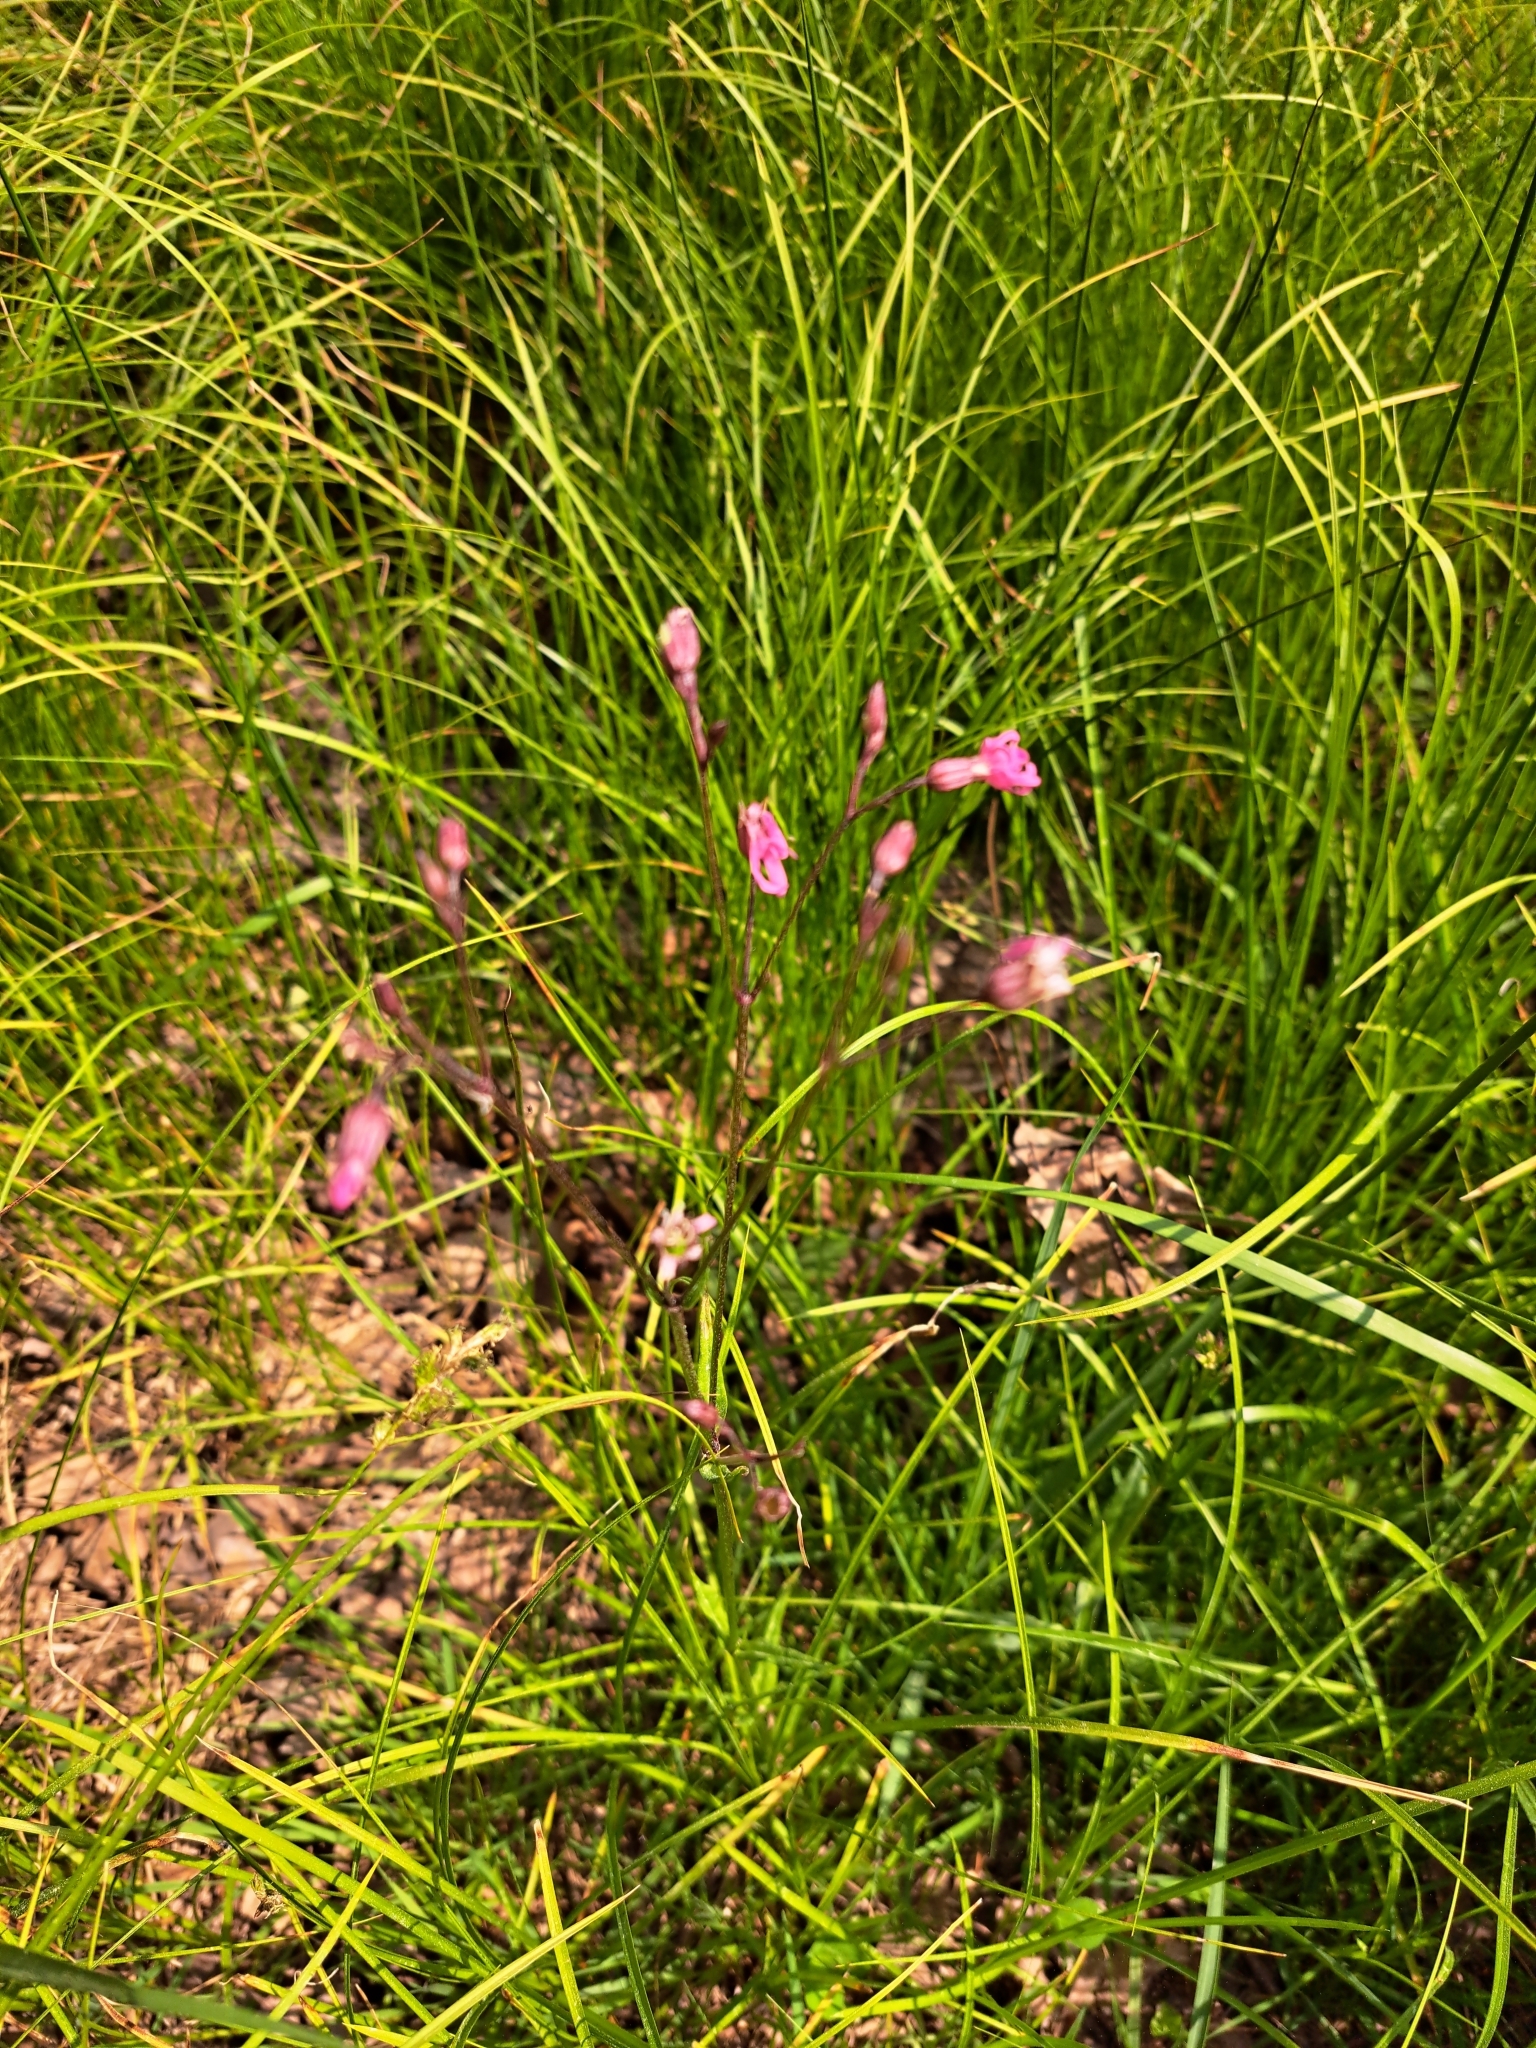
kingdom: Plantae
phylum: Tracheophyta
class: Magnoliopsida
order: Caryophyllales
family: Caryophyllaceae
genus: Silene
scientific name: Silene flos-cuculi
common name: Ragged-robin
